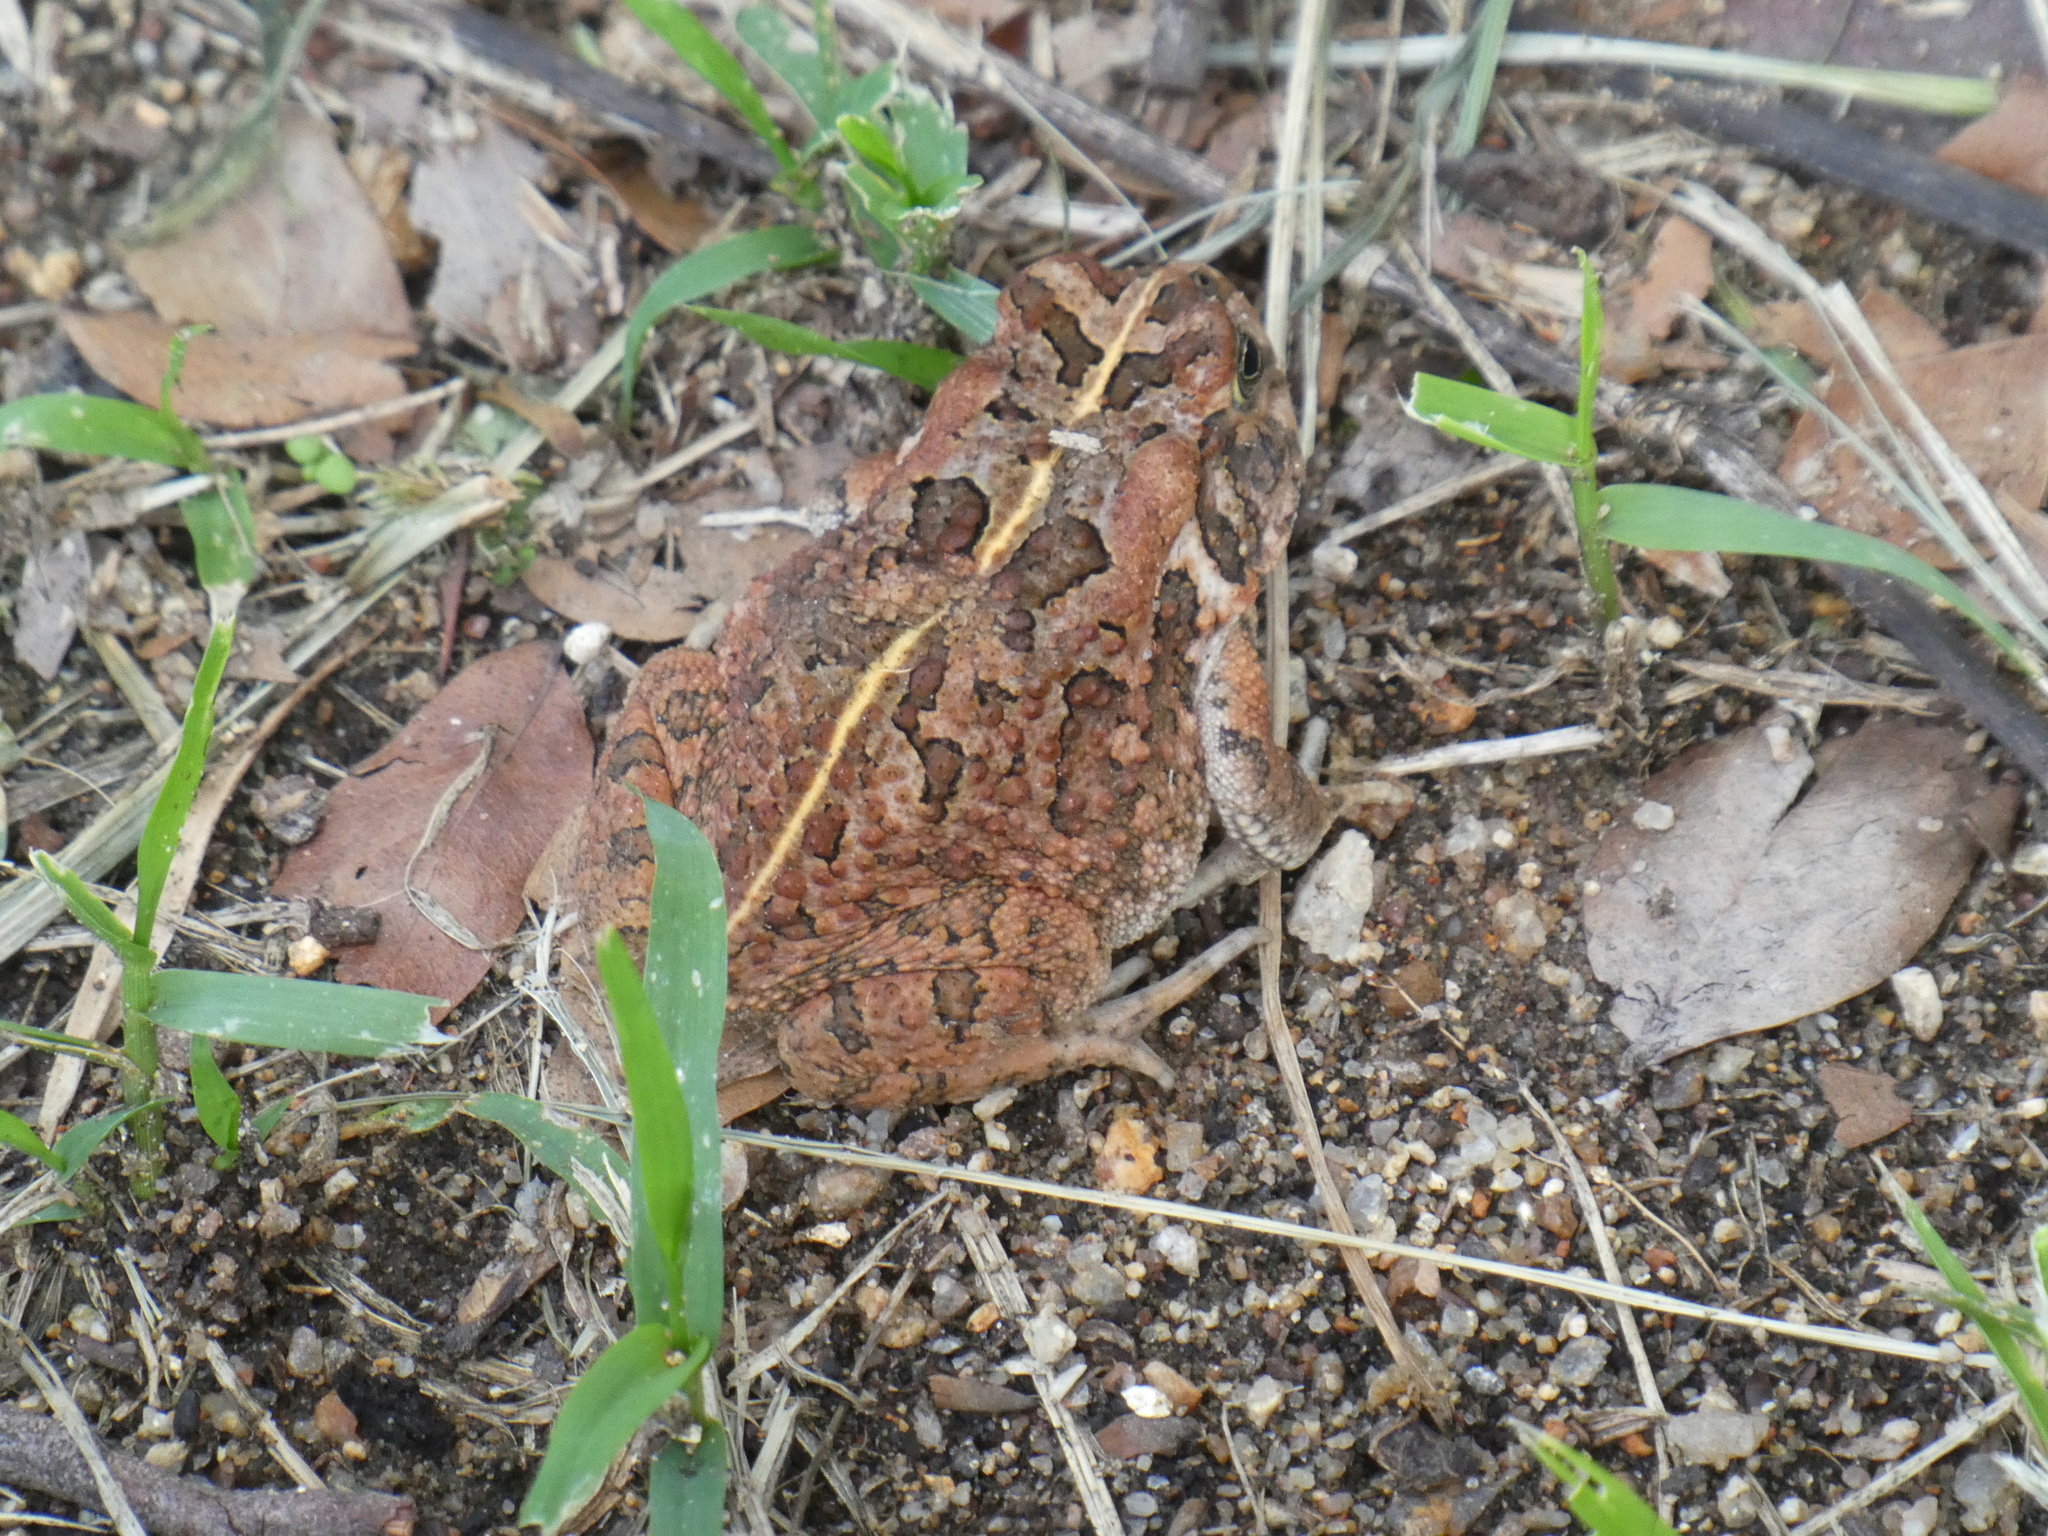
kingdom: Animalia
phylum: Chordata
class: Amphibia
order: Anura
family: Bufonidae
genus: Sclerophrys
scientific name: Sclerophrys gutturalis
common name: African common toad
